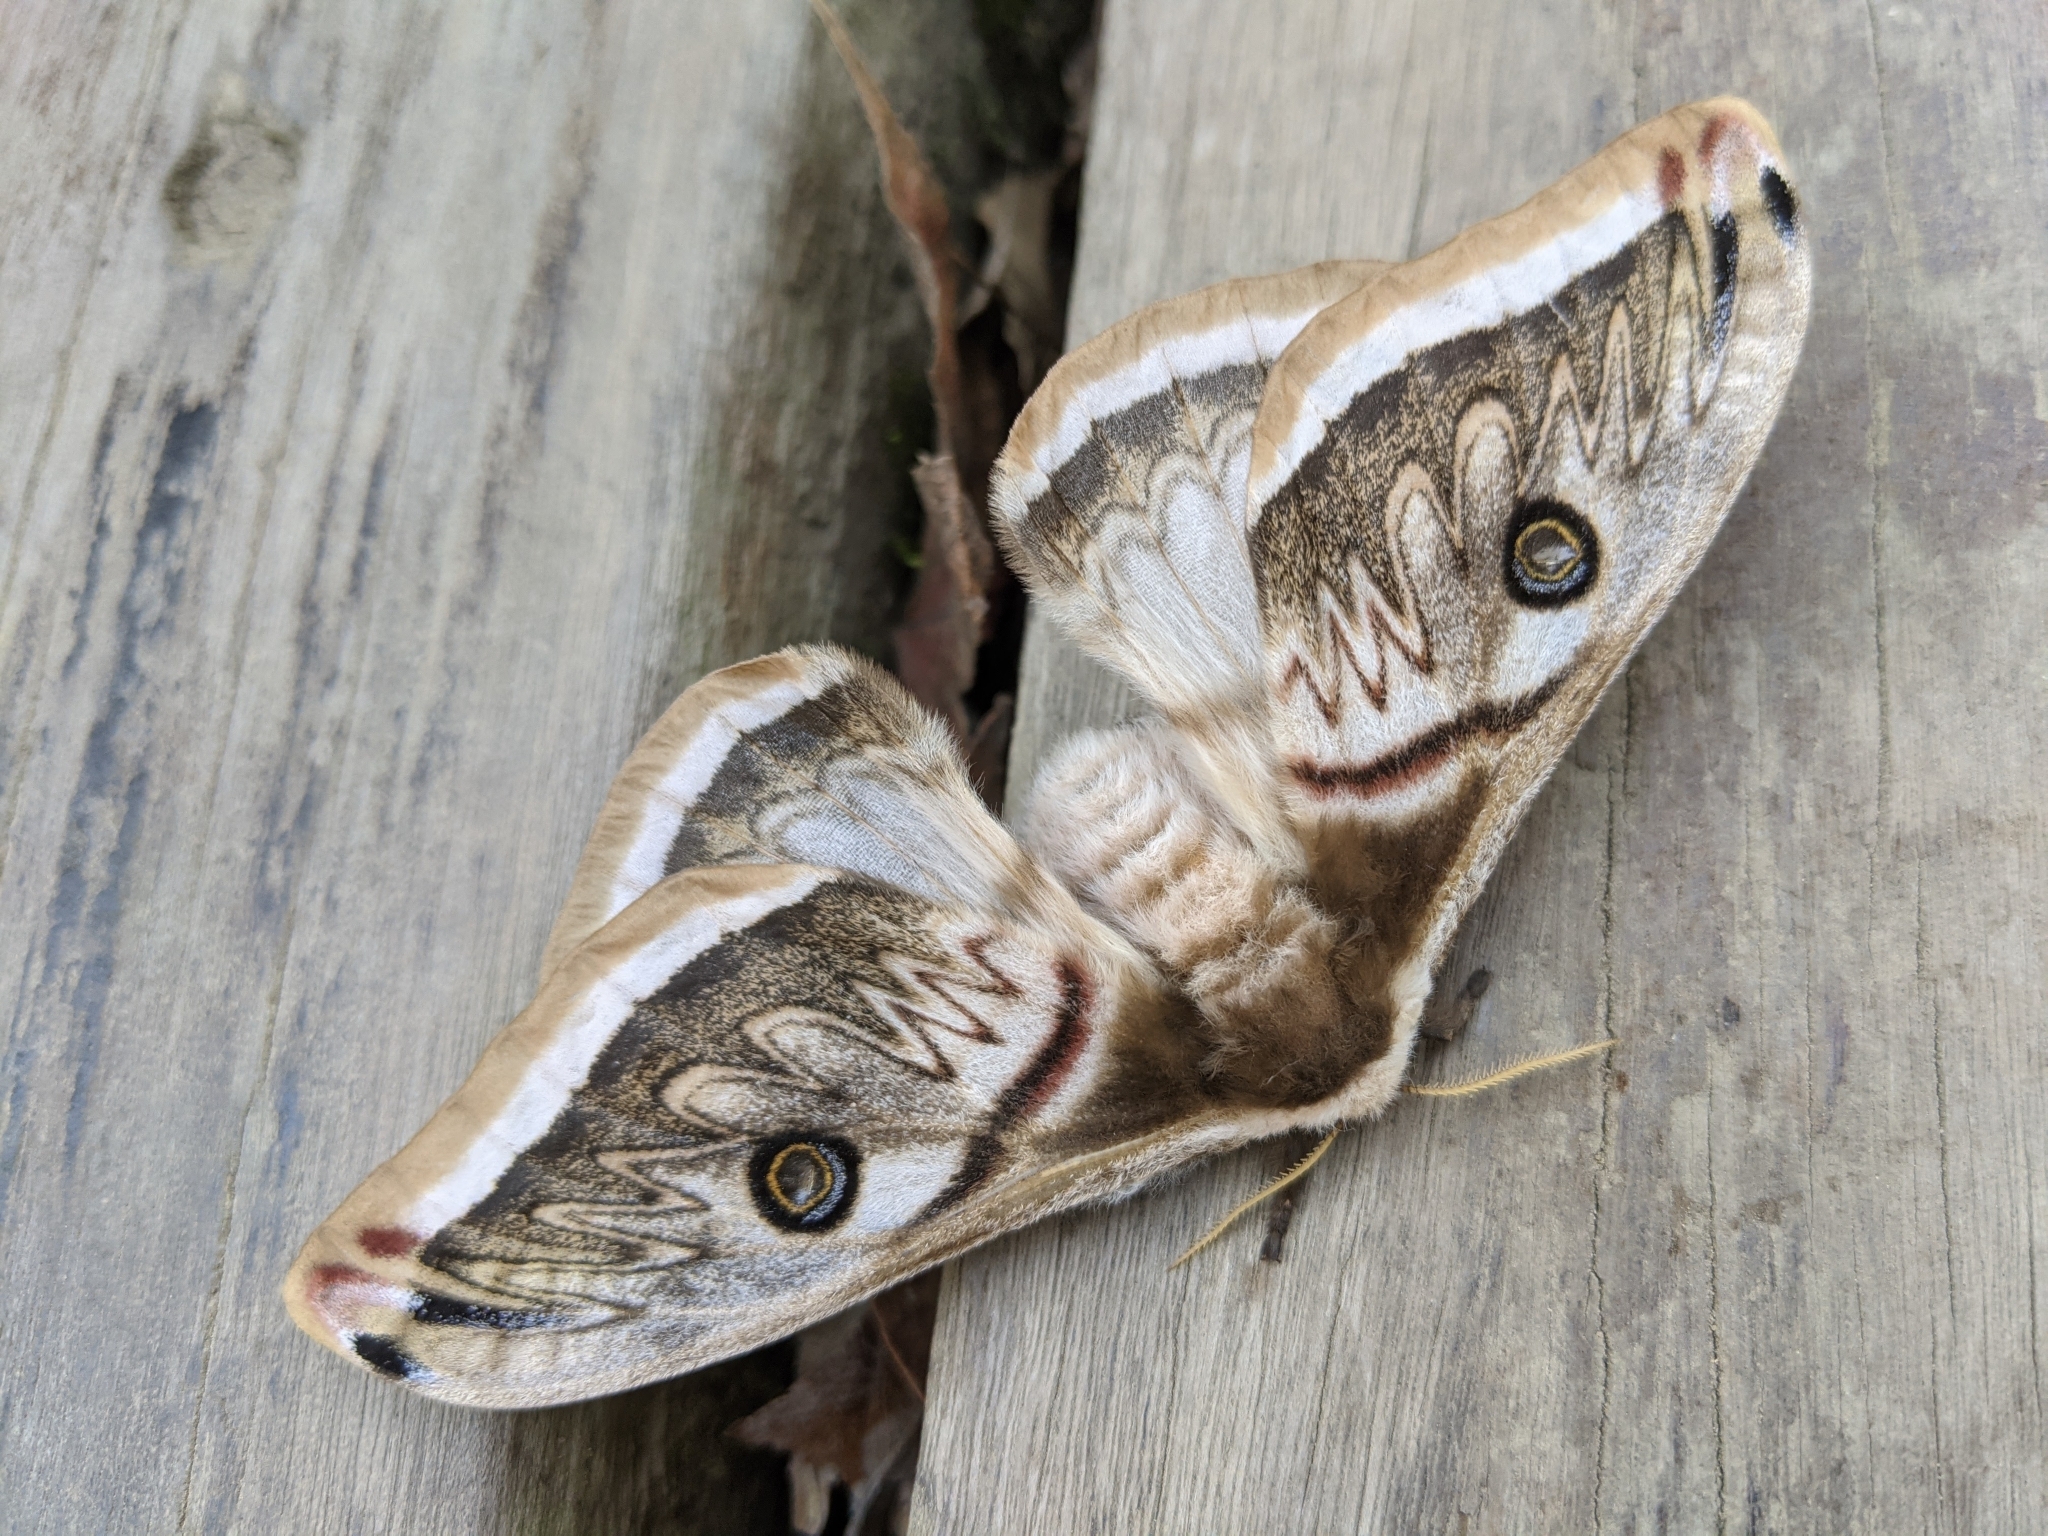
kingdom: Animalia
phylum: Arthropoda
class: Insecta
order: Lepidoptera
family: Saturniidae
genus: Saturnia
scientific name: Saturnia pyretorum
